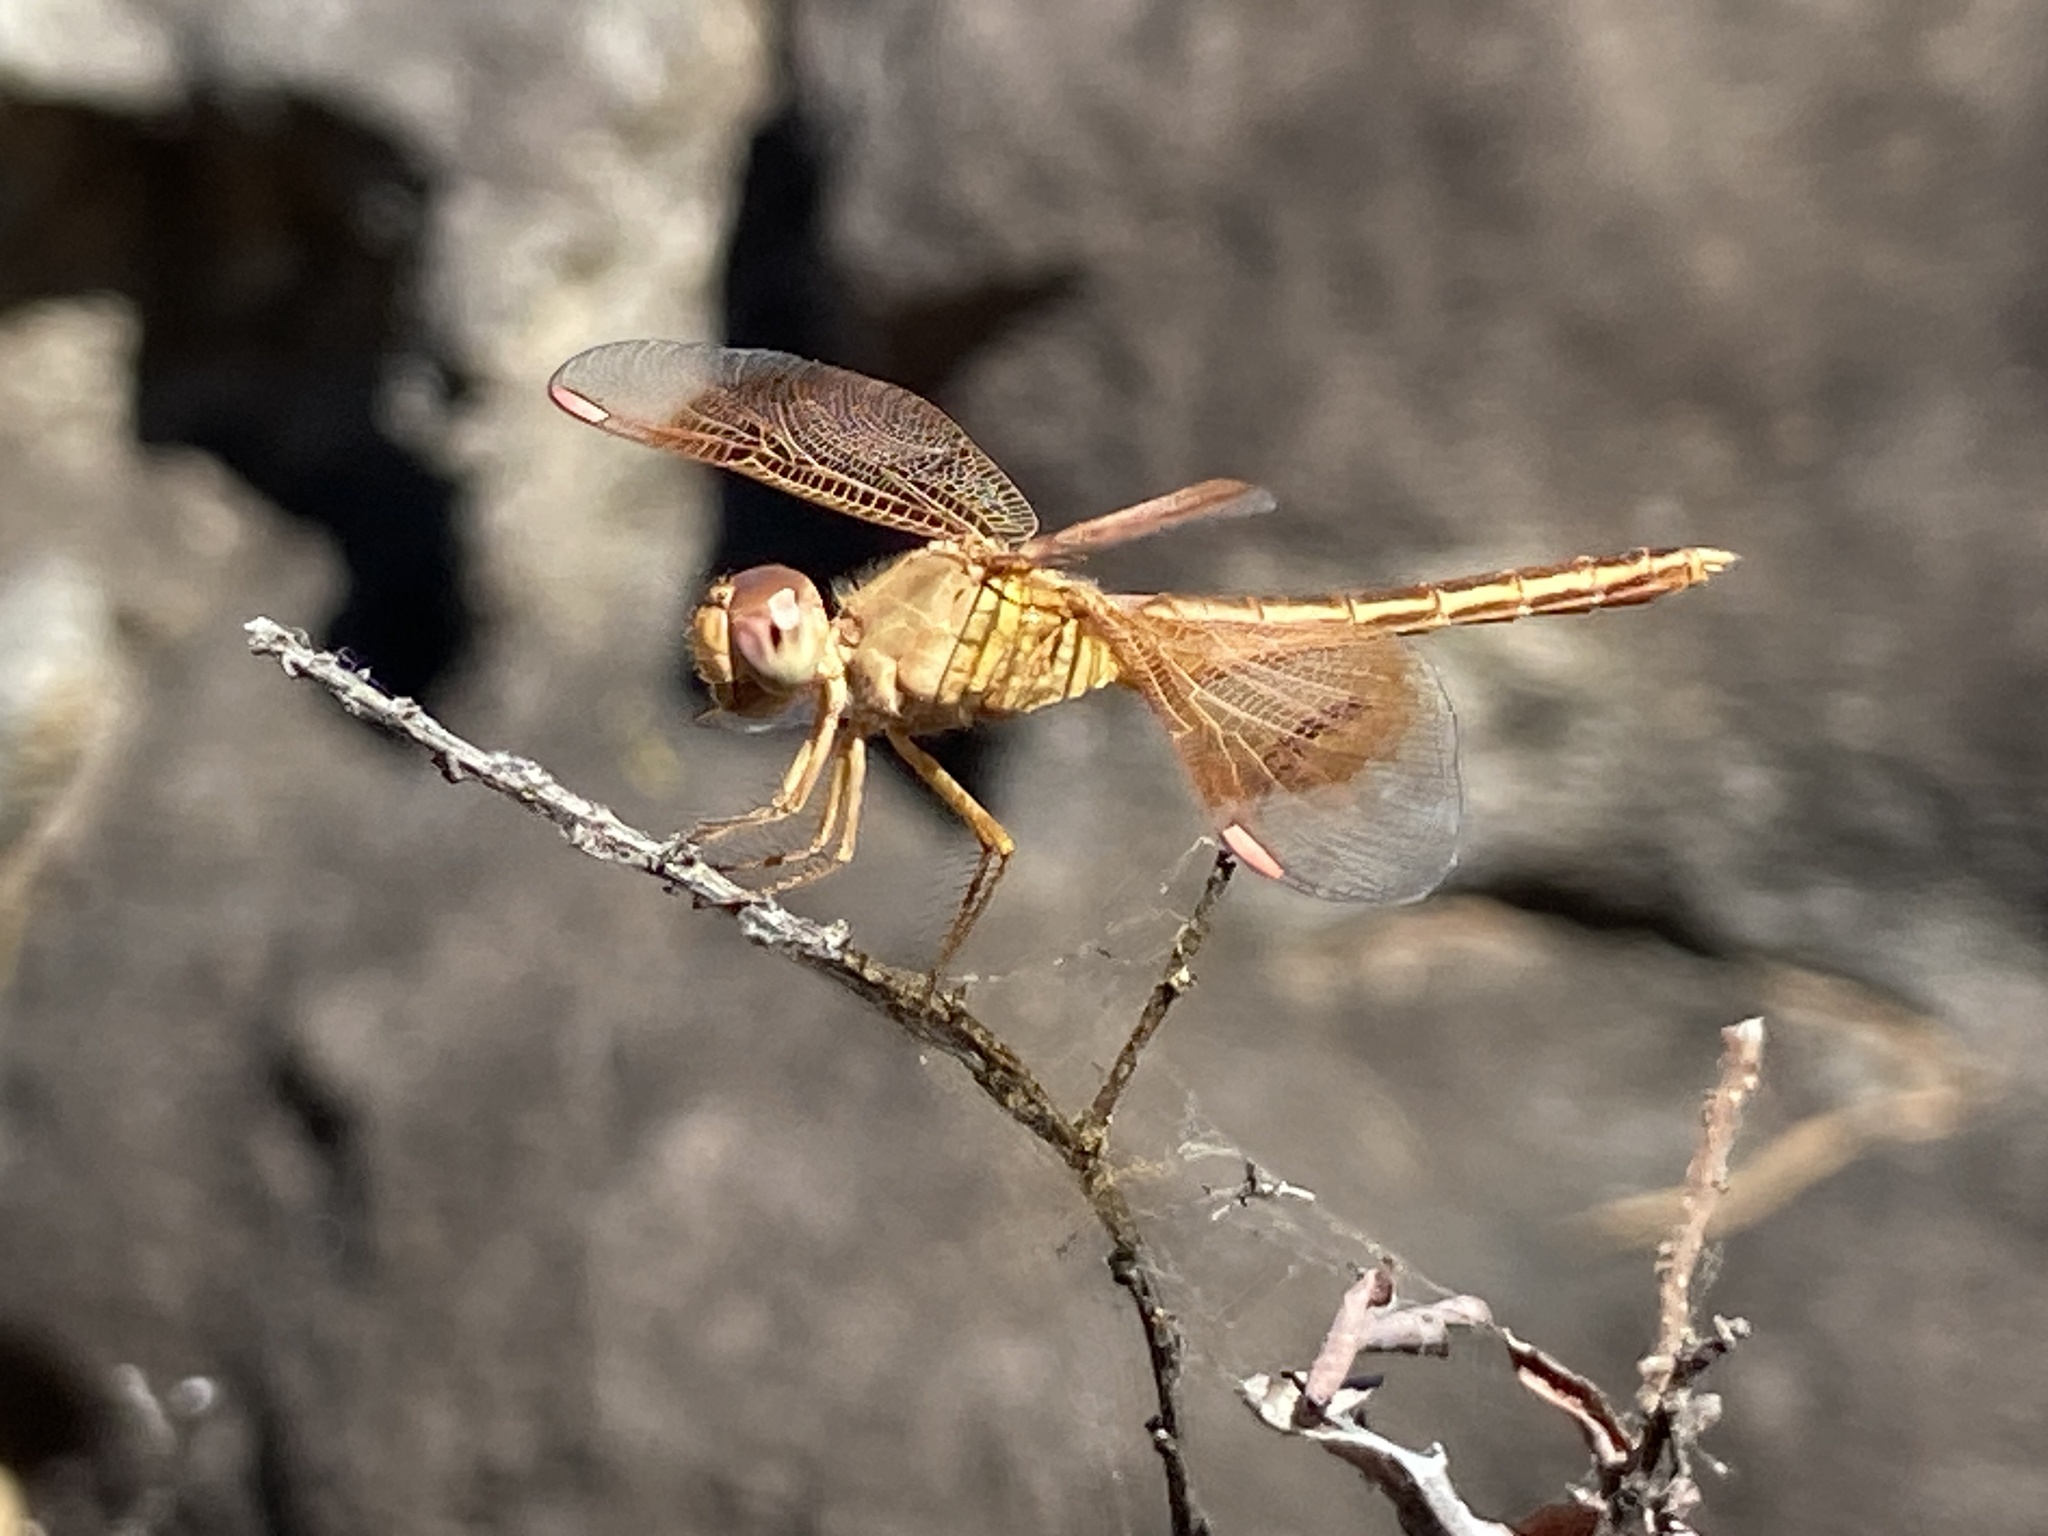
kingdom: Animalia
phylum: Arthropoda
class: Insecta
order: Odonata
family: Libellulidae
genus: Diplacodes
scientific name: Diplacodes haematodes
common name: Scarlet percher
